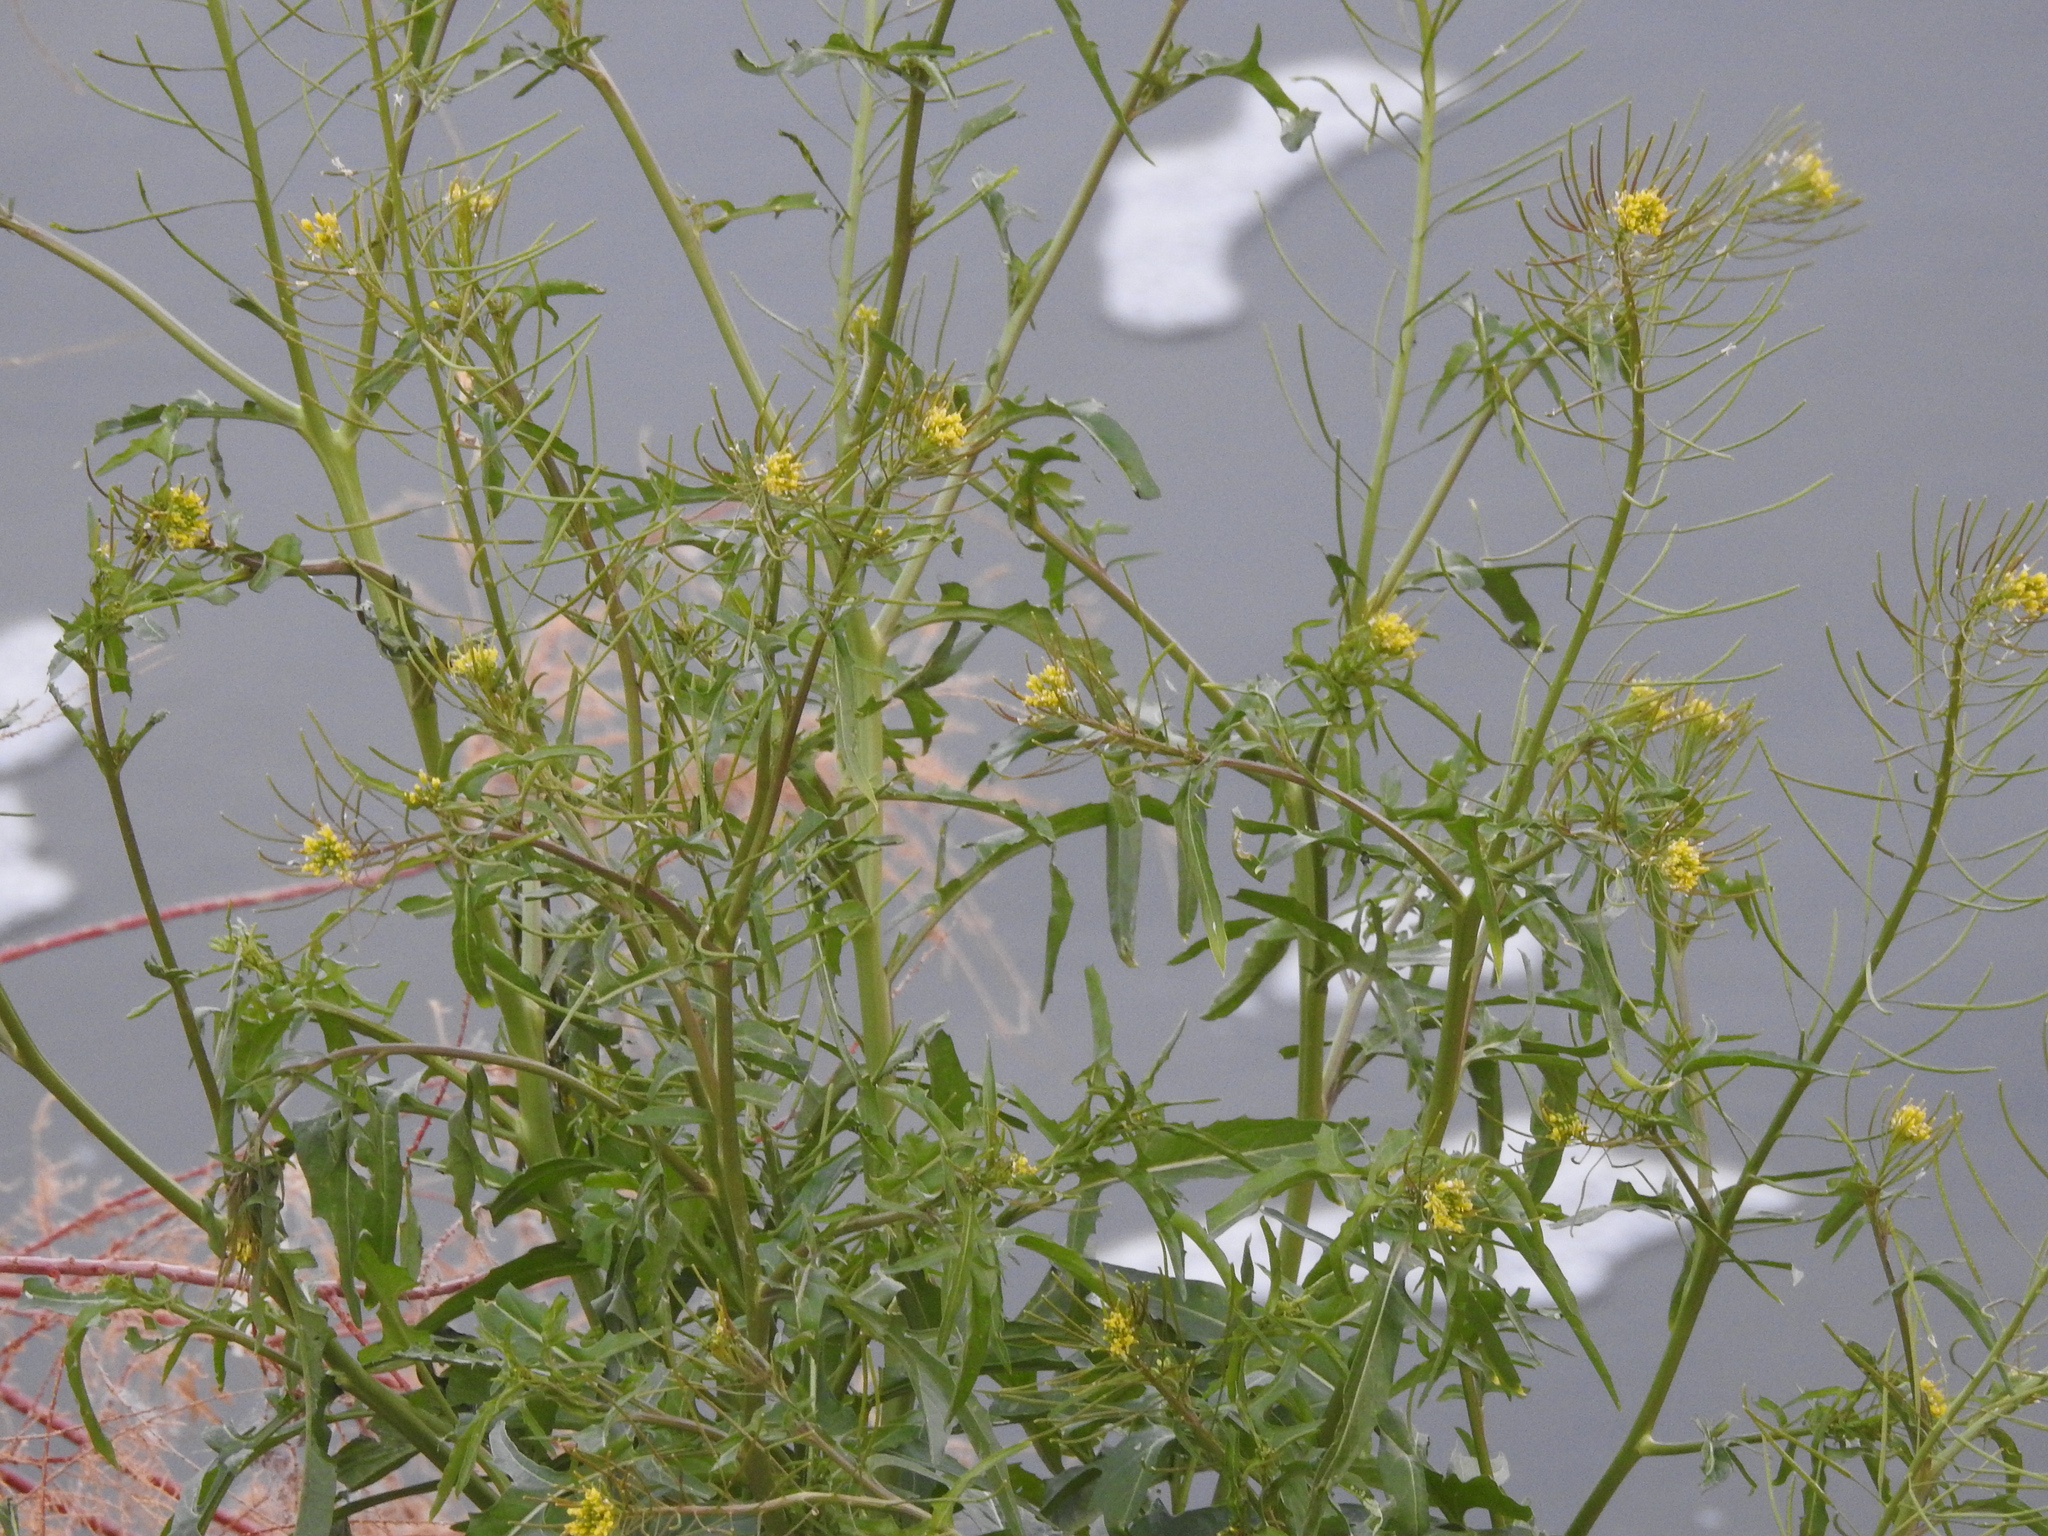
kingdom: Plantae
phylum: Tracheophyta
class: Magnoliopsida
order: Brassicales
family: Brassicaceae
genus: Sisymbrium
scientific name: Sisymbrium irio
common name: London rocket
